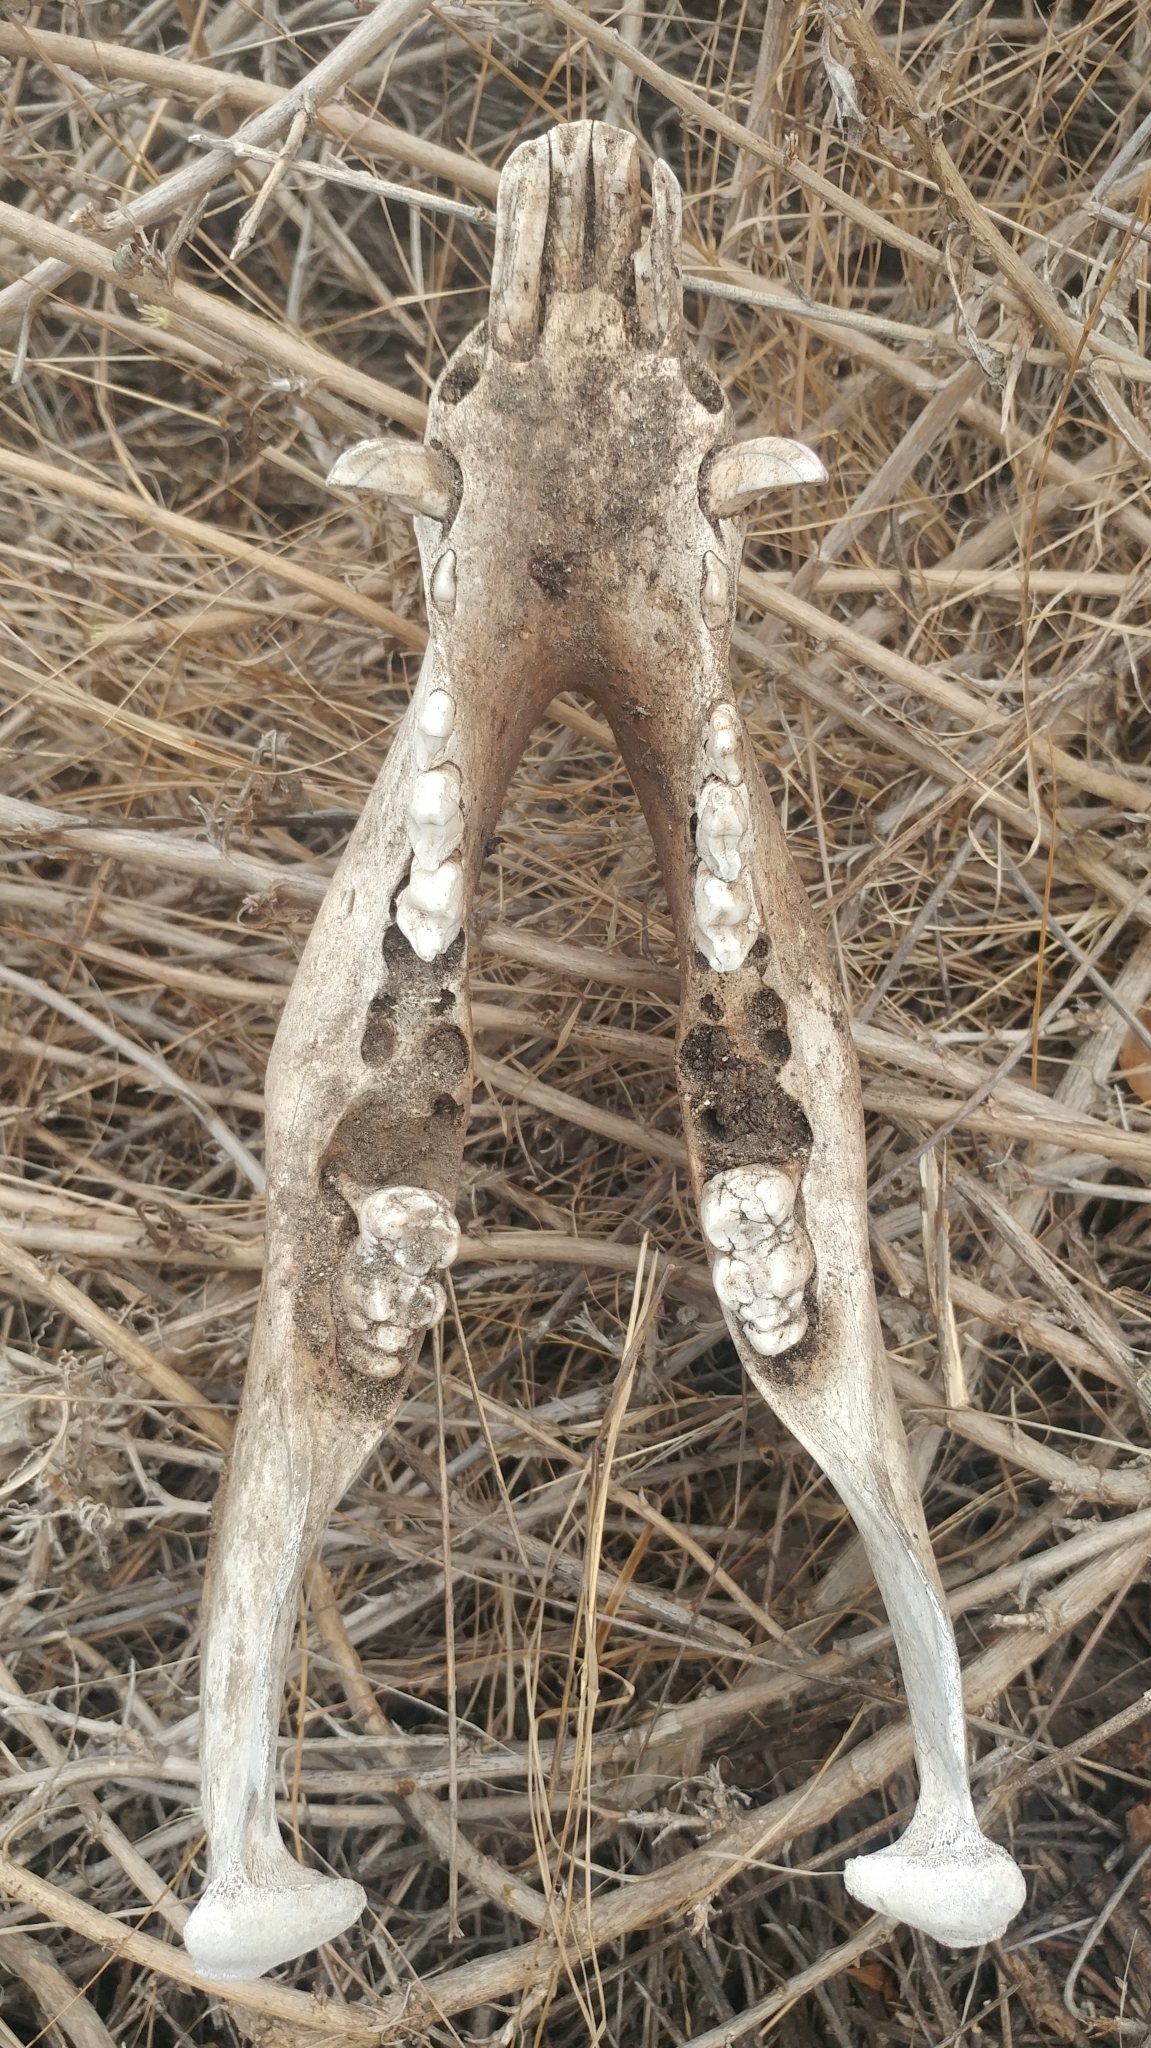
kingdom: Animalia
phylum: Chordata
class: Mammalia
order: Artiodactyla
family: Suidae
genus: Sus
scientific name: Sus scrofa
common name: Wild boar
